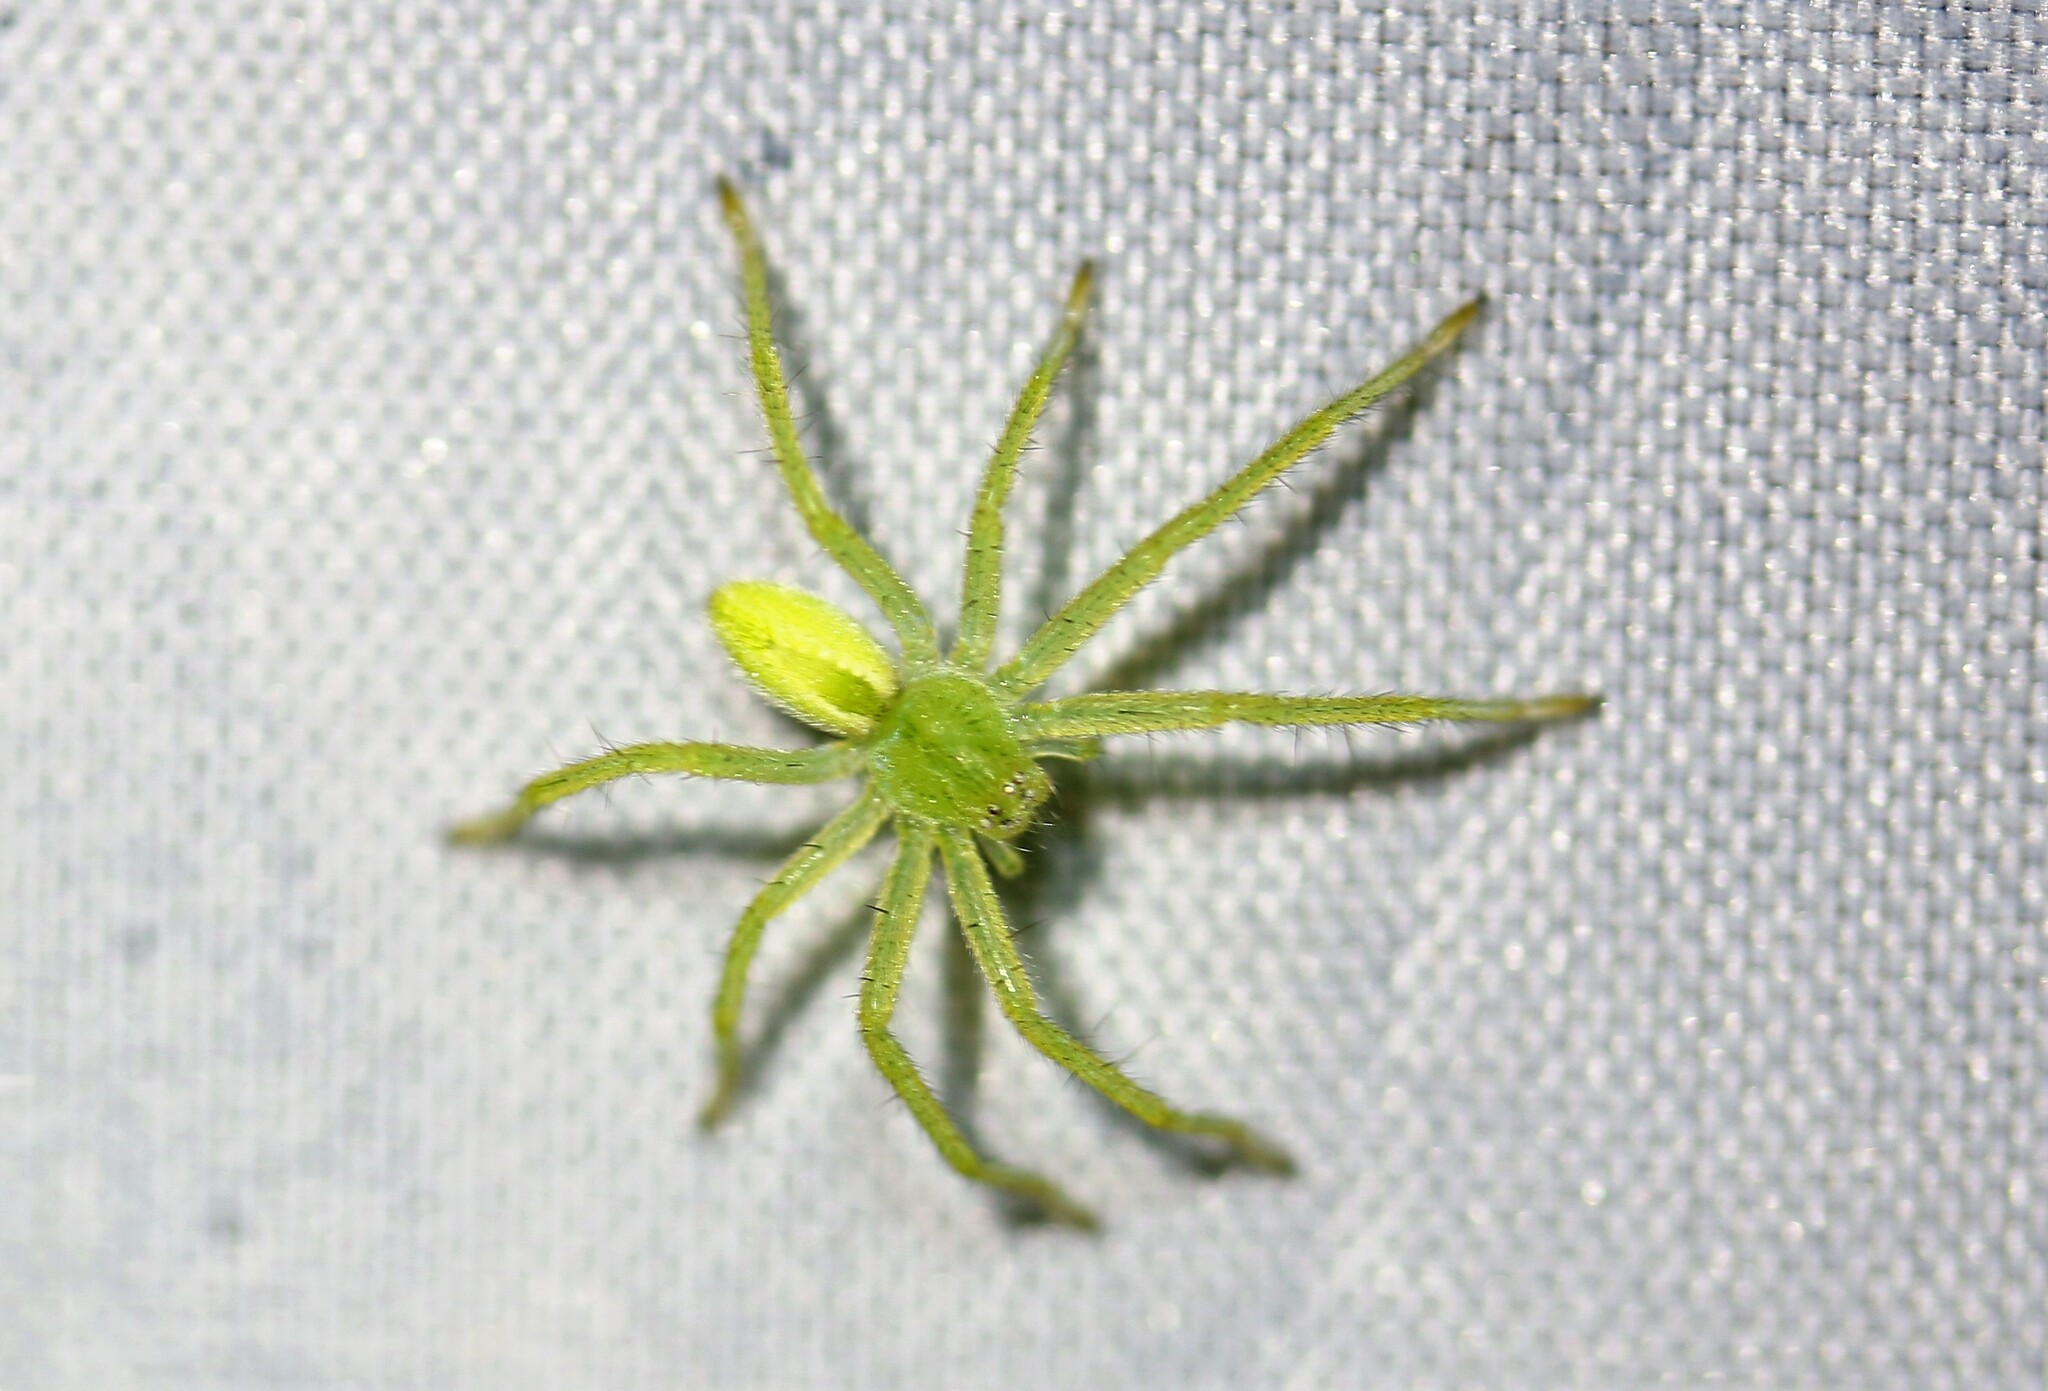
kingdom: Animalia
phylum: Arthropoda
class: Arachnida
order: Araneae
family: Sparassidae
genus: Micrommata
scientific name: Micrommata virescens
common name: Green spider
